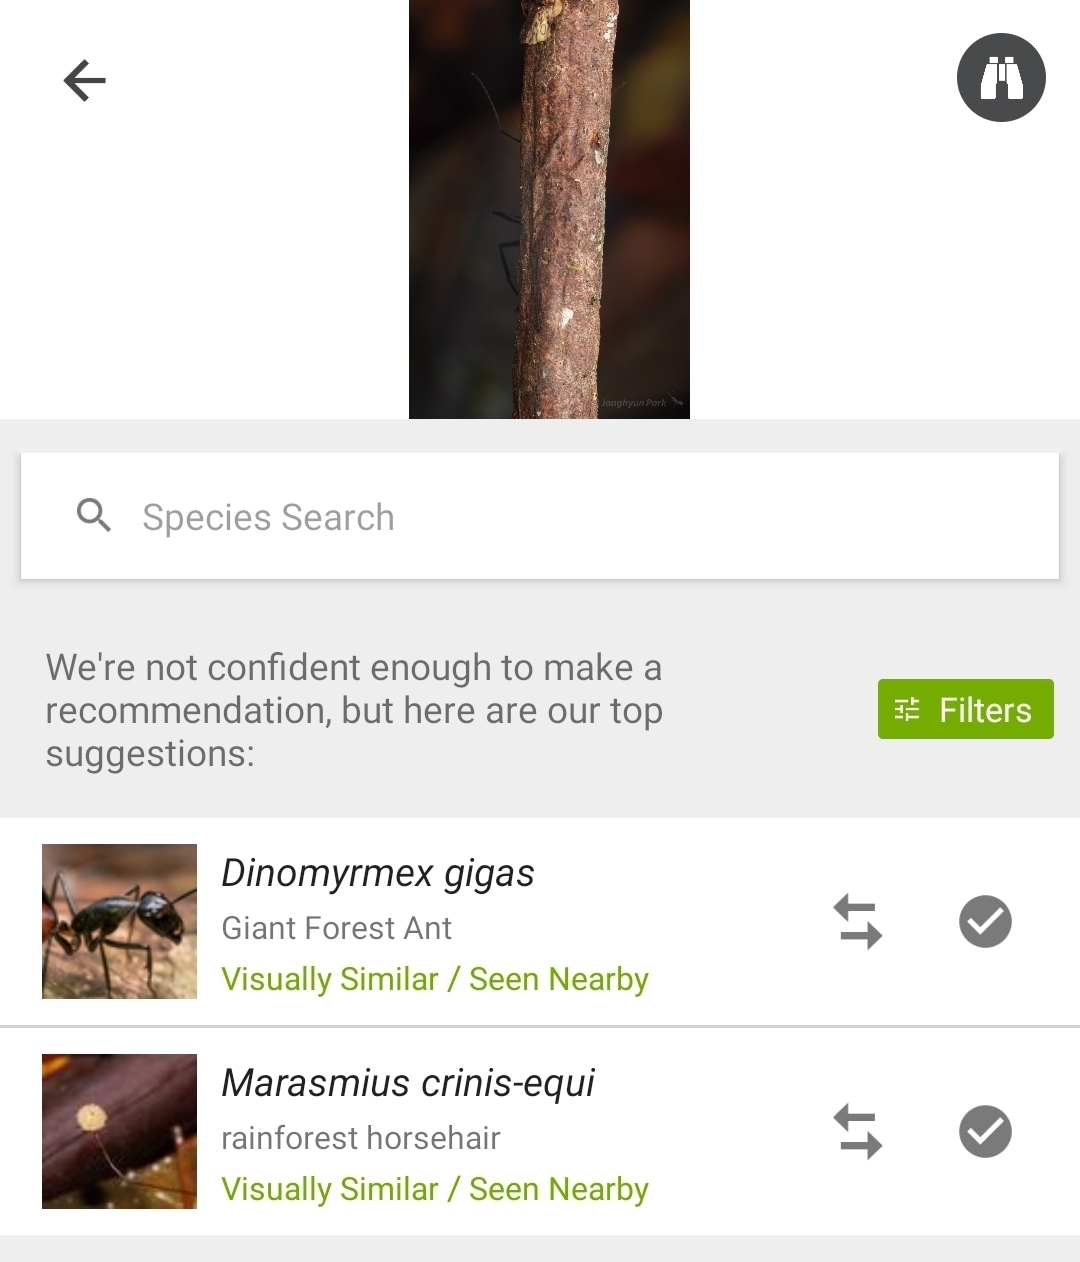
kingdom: Animalia
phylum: Arthropoda
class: Insecta
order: Hymenoptera
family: Formicidae
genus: Dinomyrmex
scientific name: Dinomyrmex
